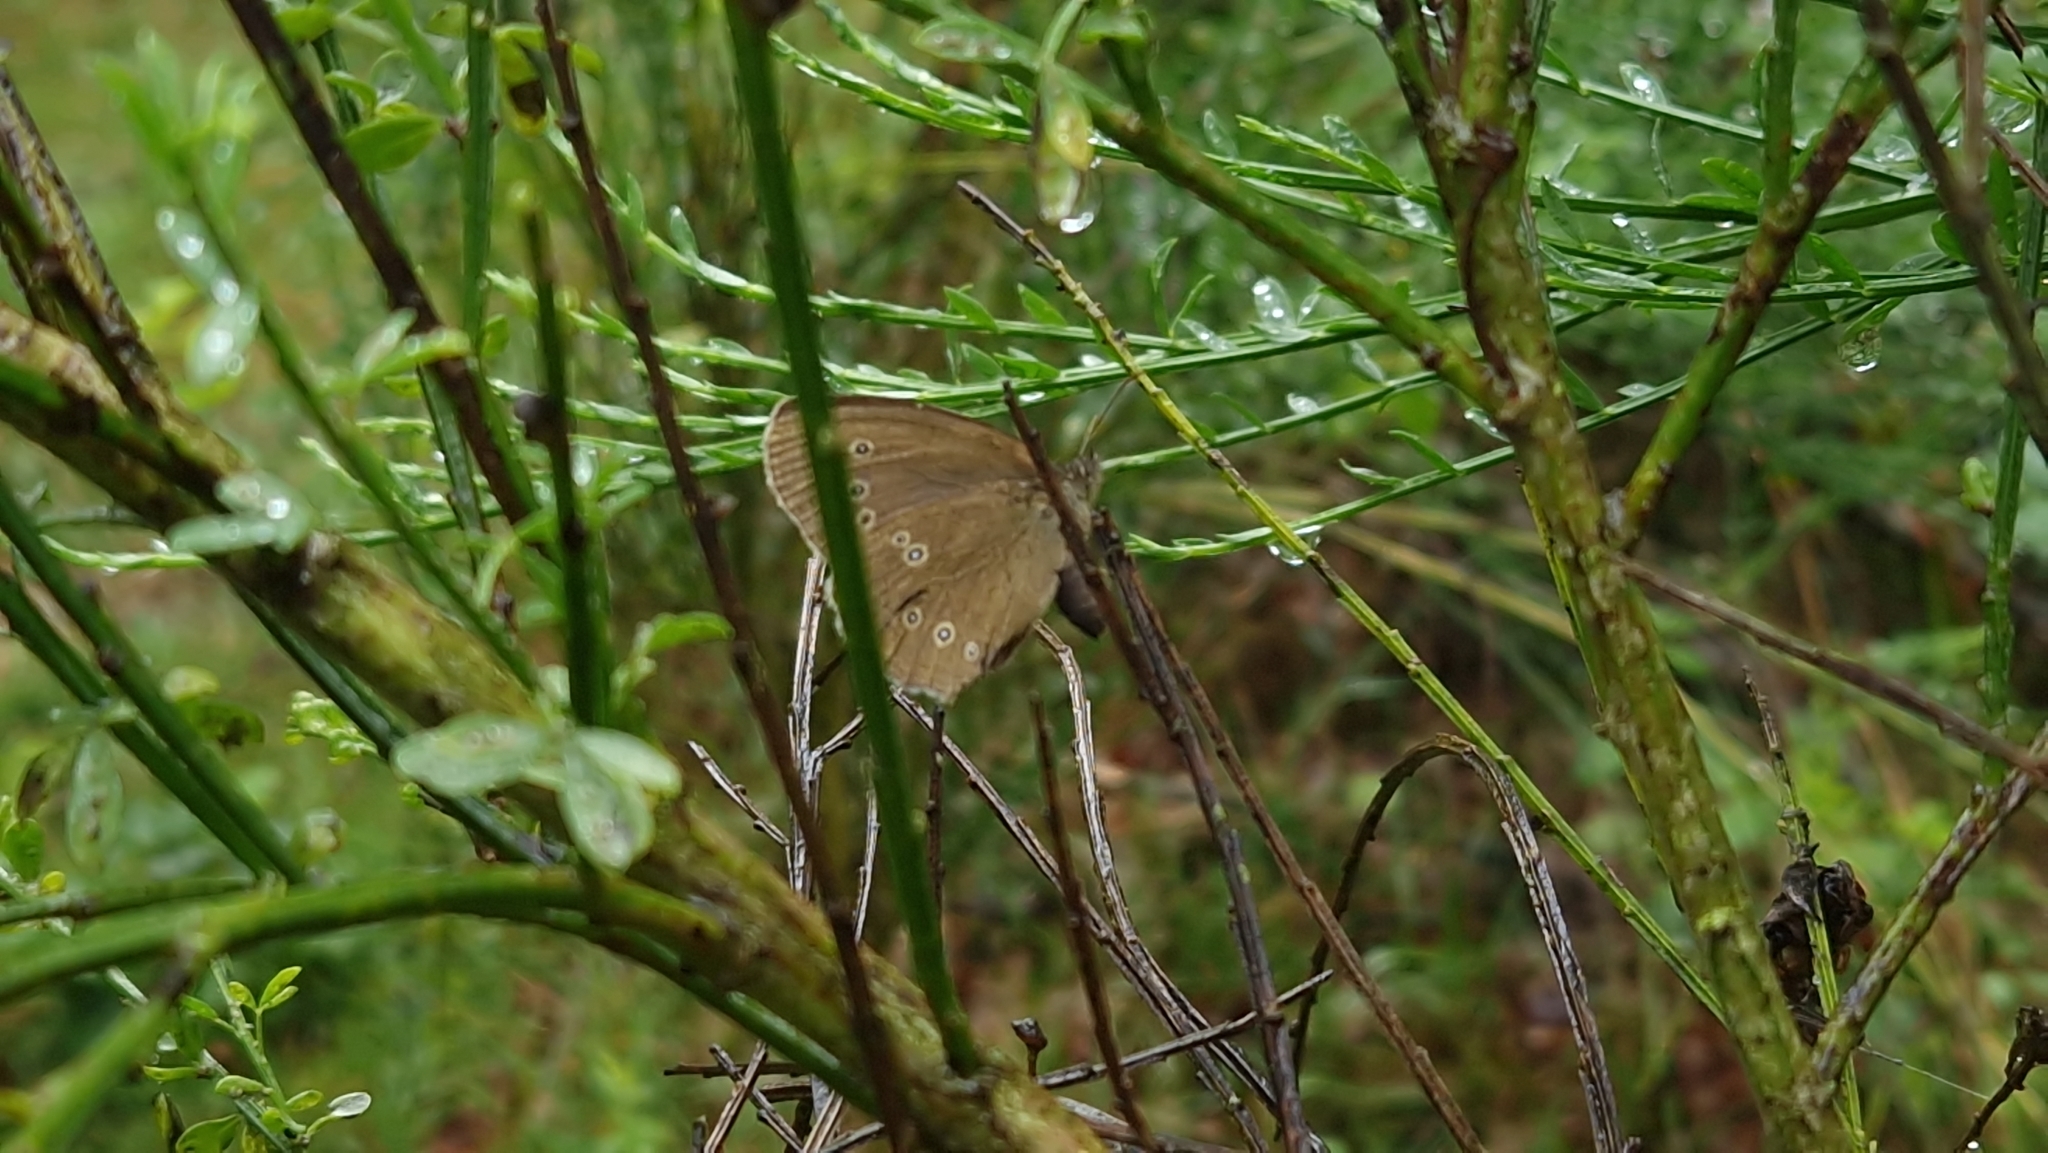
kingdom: Animalia
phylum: Arthropoda
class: Insecta
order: Lepidoptera
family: Nymphalidae
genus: Aphantopus
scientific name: Aphantopus hyperantus
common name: Ringlet
